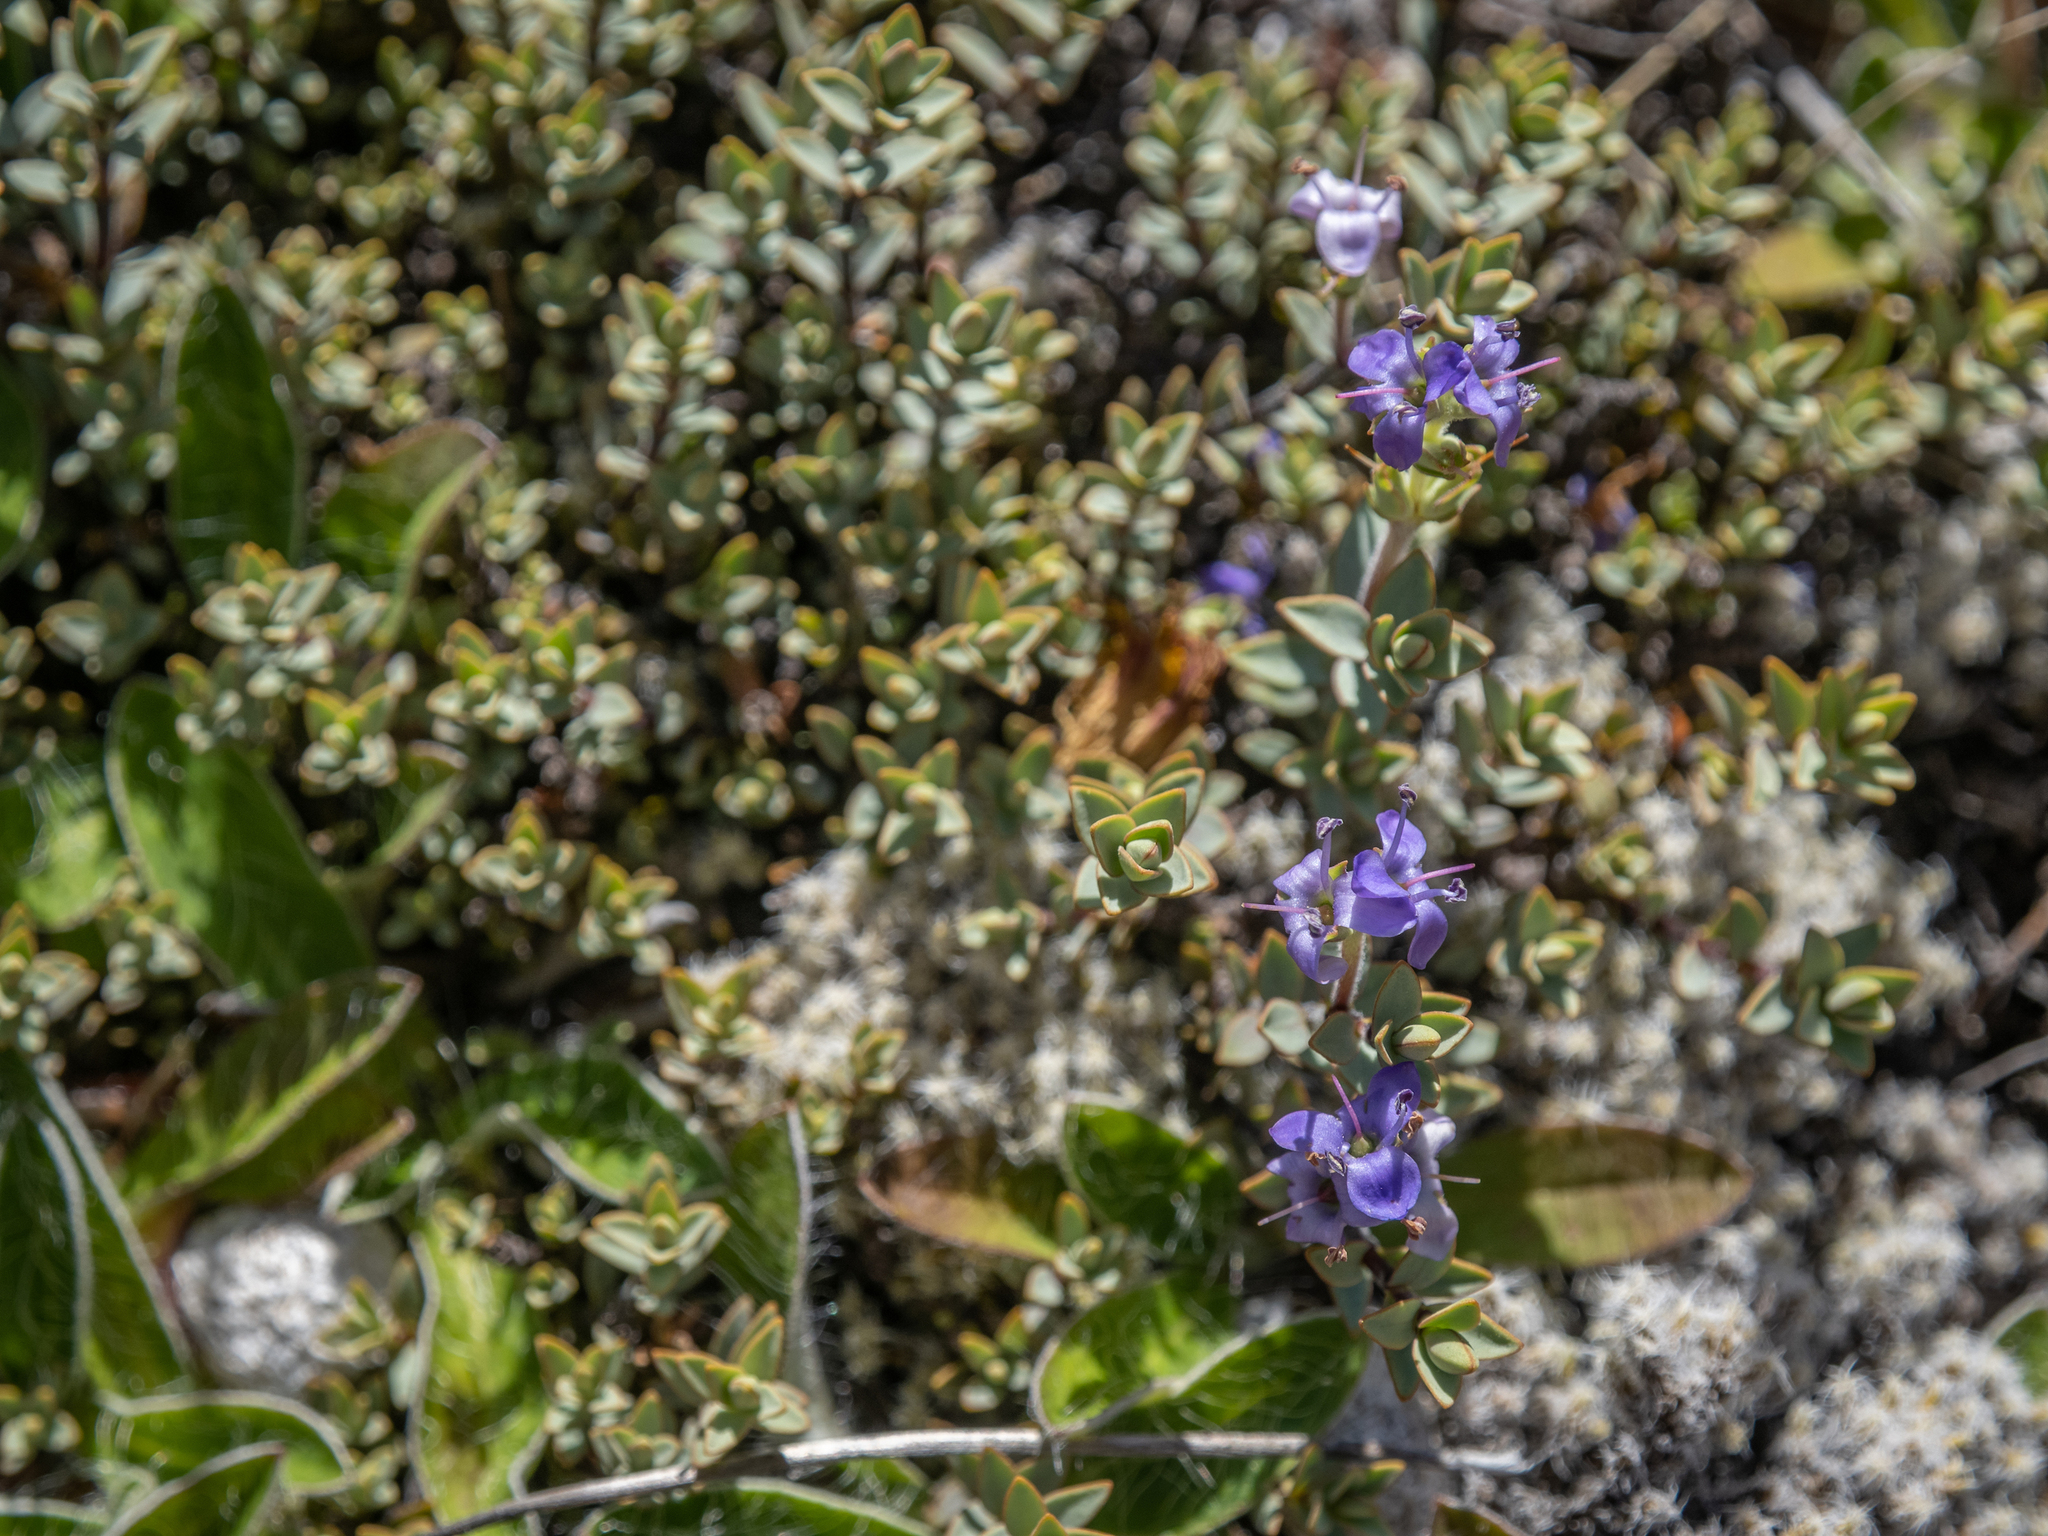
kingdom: Plantae
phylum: Tracheophyta
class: Magnoliopsida
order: Lamiales
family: Plantaginaceae
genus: Veronica
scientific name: Veronica pimeleoides
